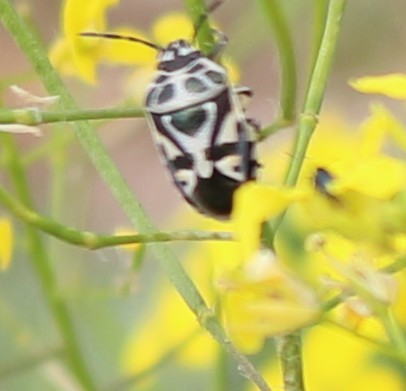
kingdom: Animalia
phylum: Arthropoda
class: Insecta
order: Hemiptera
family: Pentatomidae
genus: Eurydema
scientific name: Eurydema ornata
